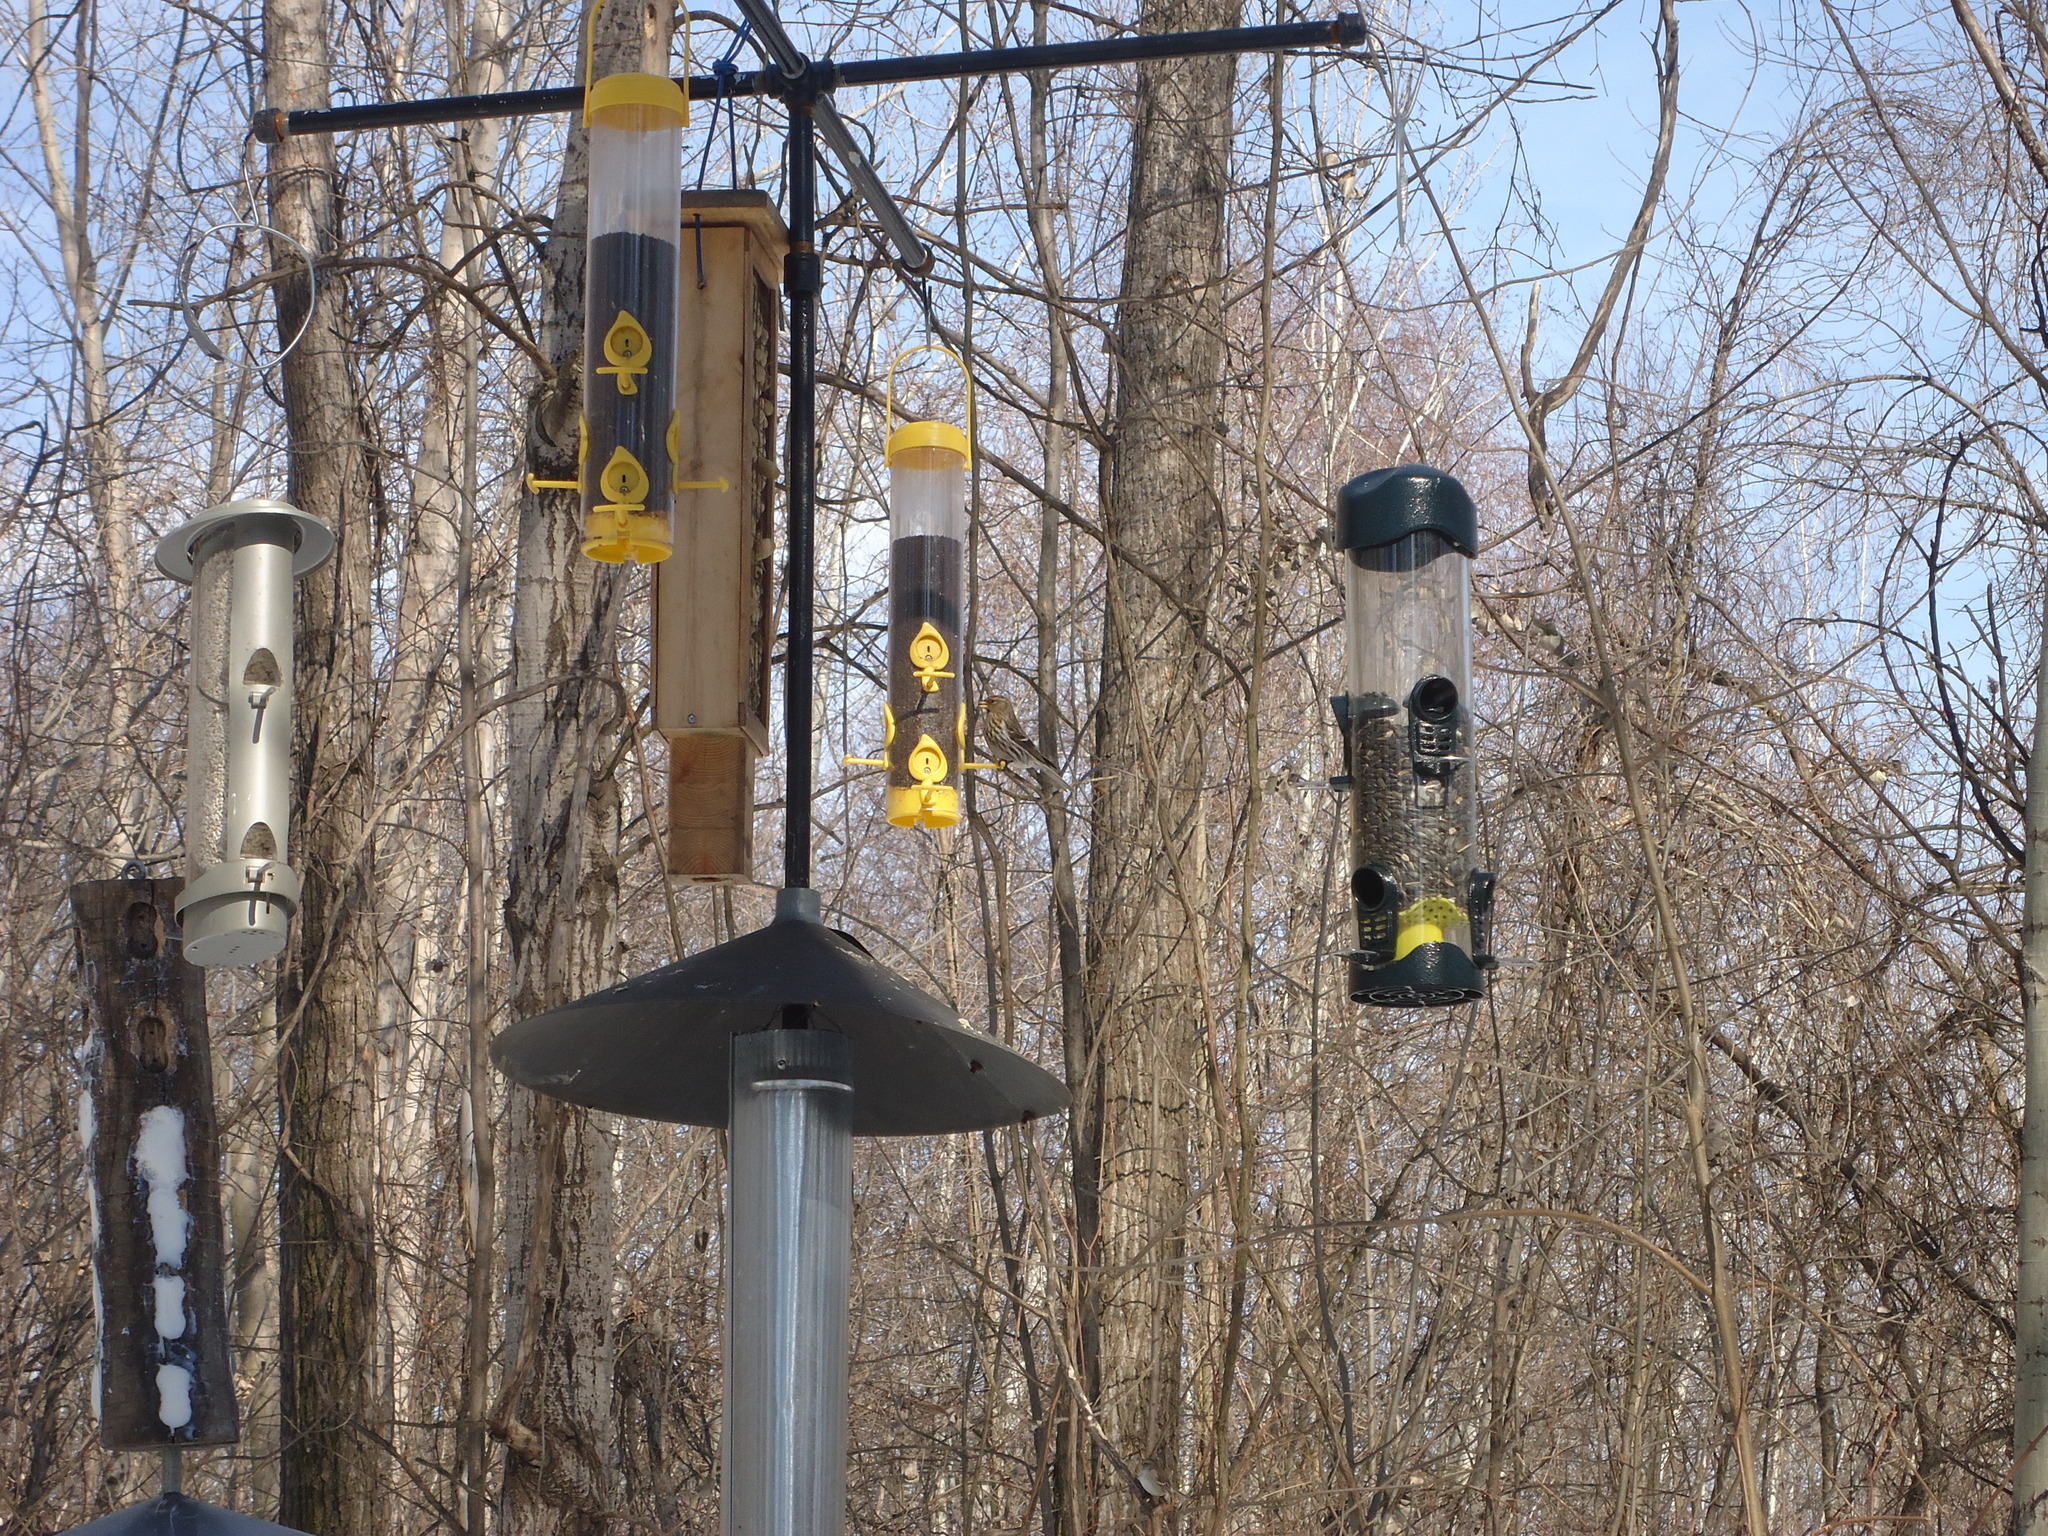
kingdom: Animalia
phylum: Chordata
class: Aves
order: Passeriformes
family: Fringillidae
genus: Acanthis
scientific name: Acanthis flammea
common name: Common redpoll
